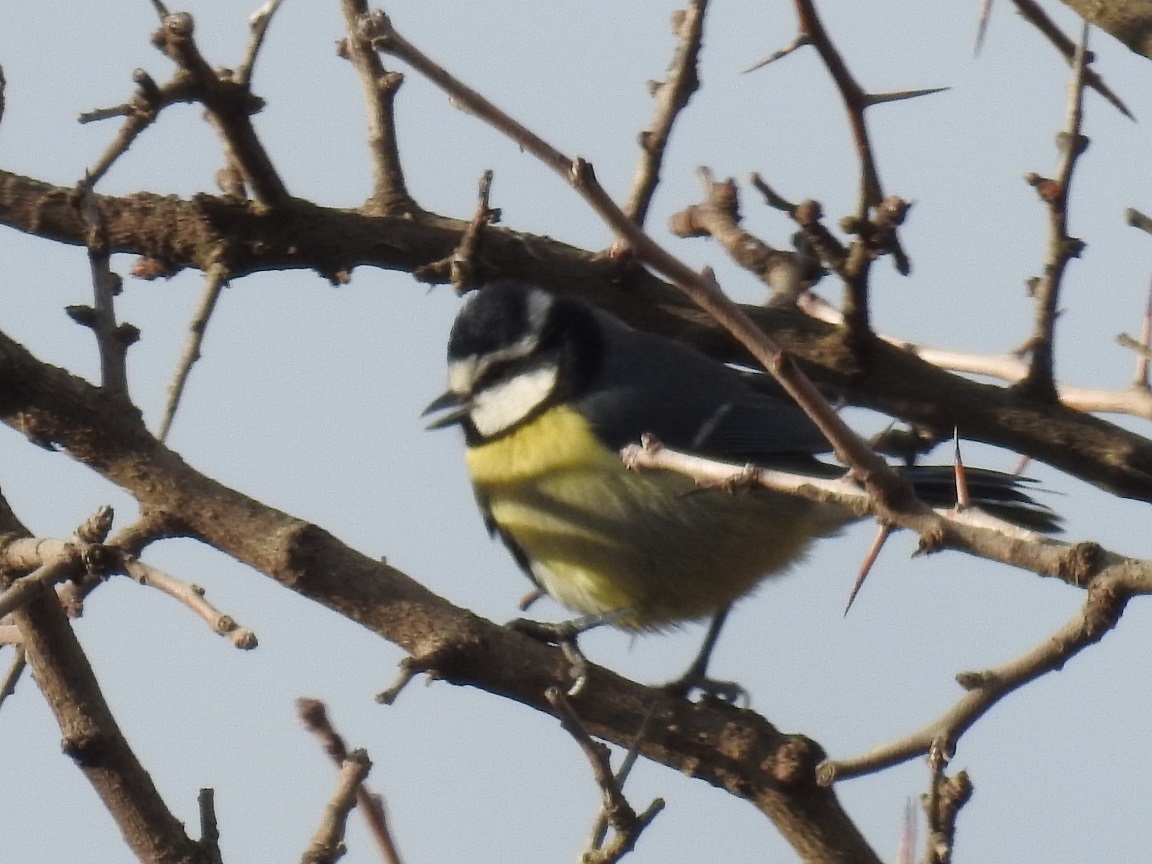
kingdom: Animalia
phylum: Chordata
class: Aves
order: Passeriformes
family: Paridae
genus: Cyanistes
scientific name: Cyanistes teneriffae
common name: African blue tit
